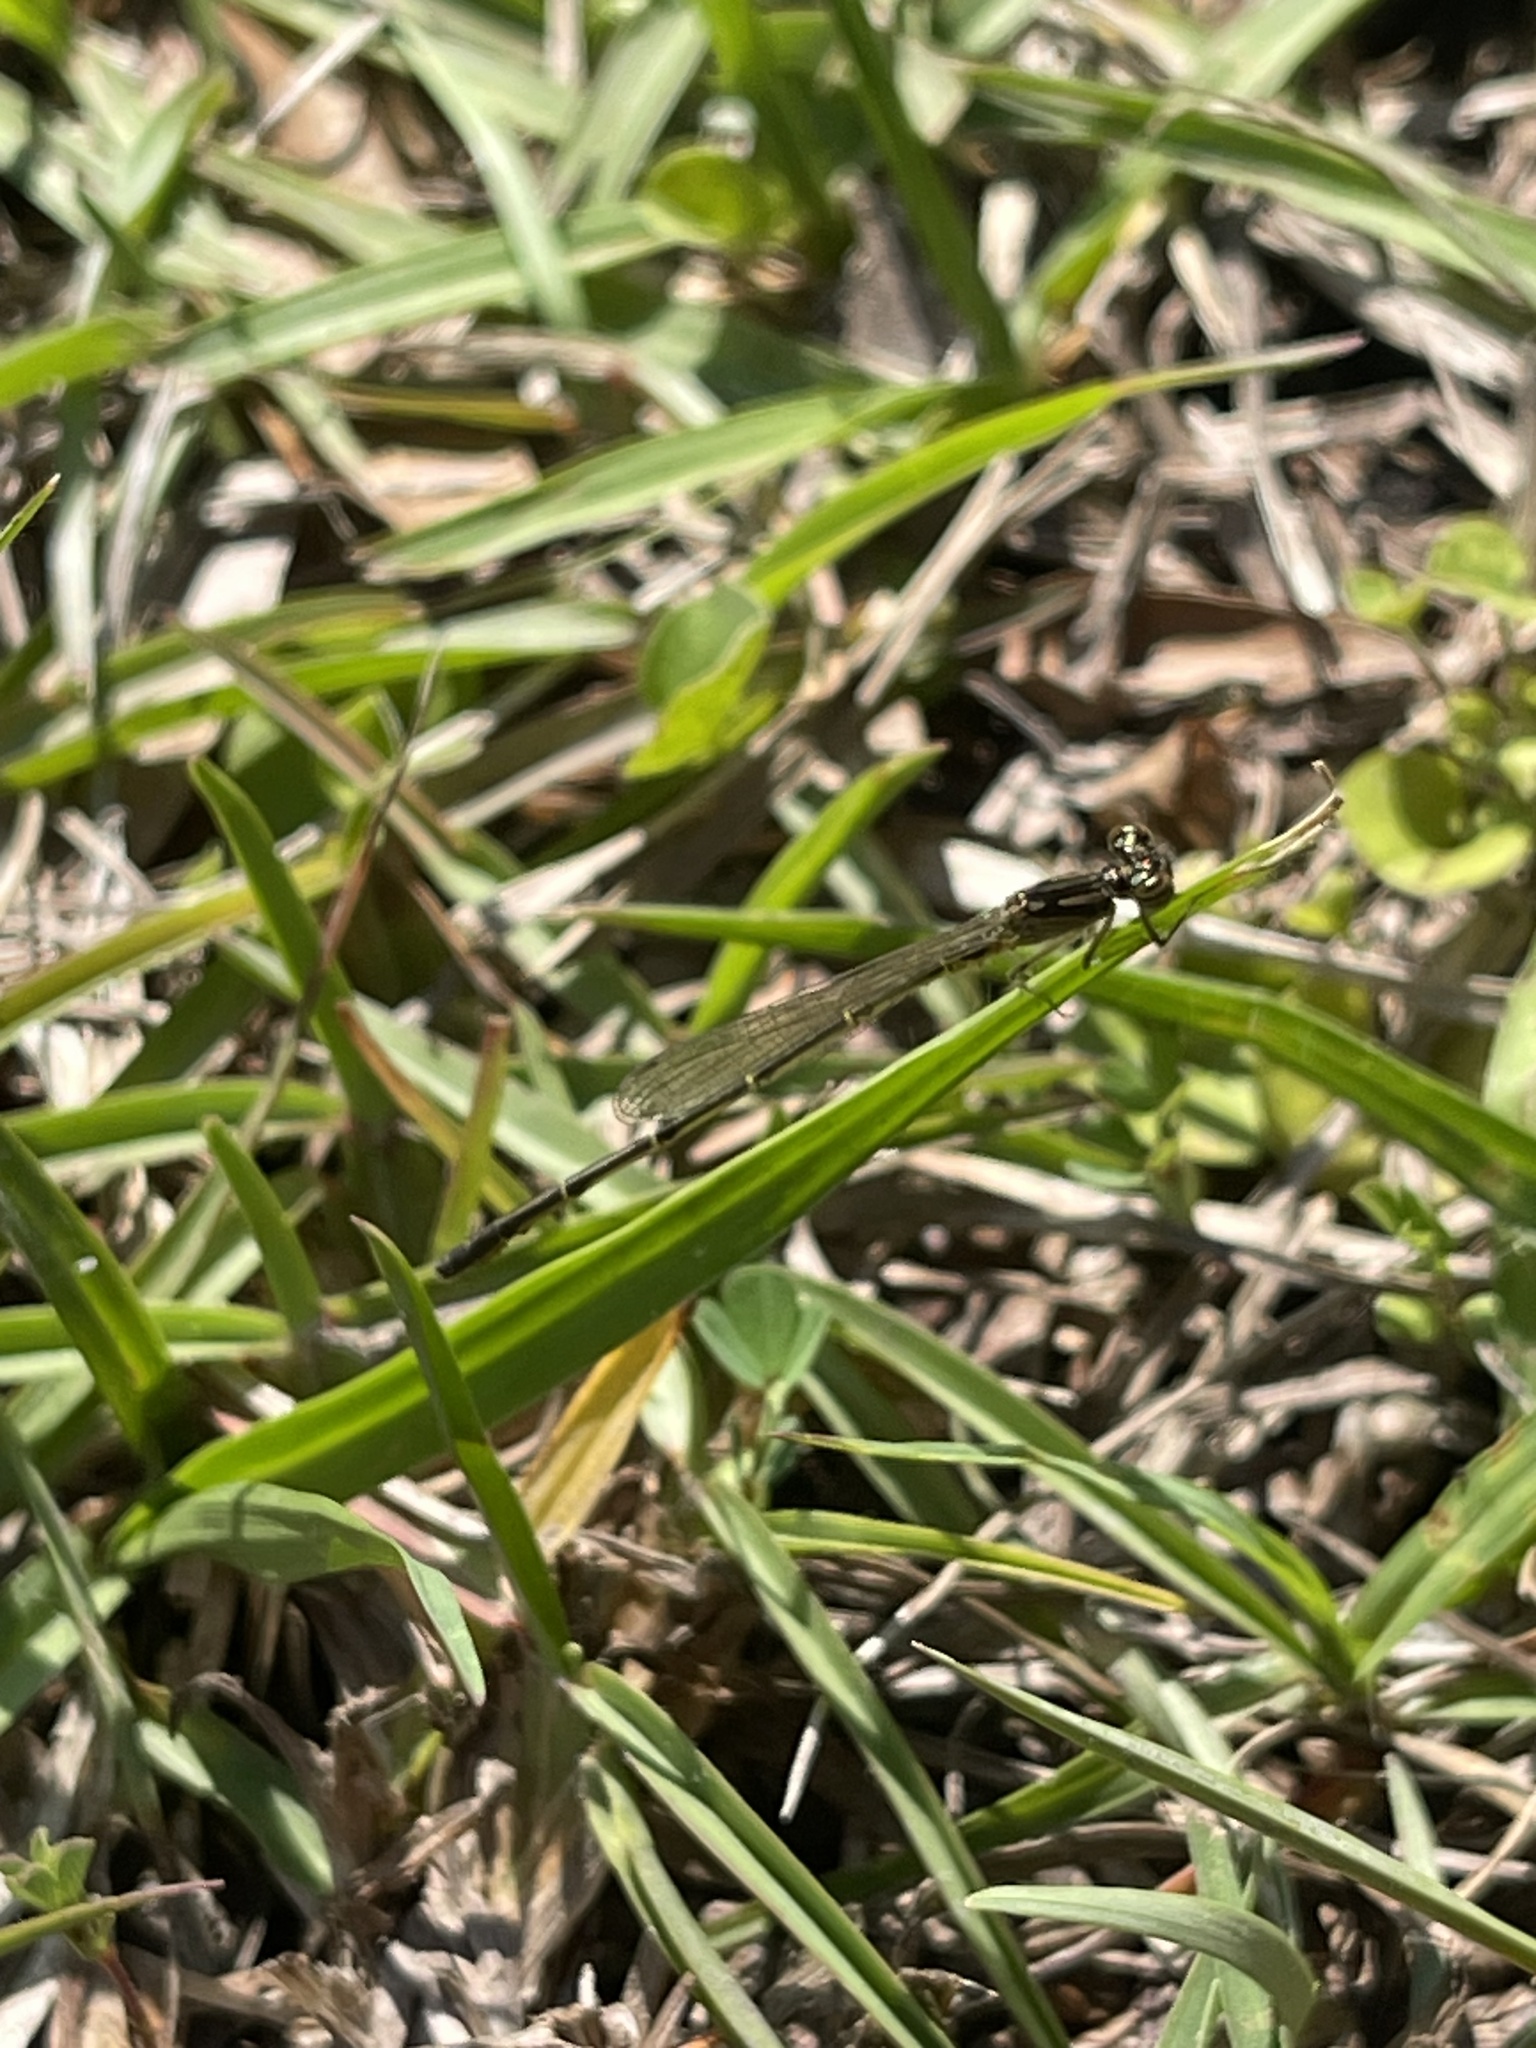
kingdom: Animalia
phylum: Arthropoda
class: Insecta
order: Odonata
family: Coenagrionidae
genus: Ischnura
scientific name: Ischnura posita
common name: Fragile forktail
